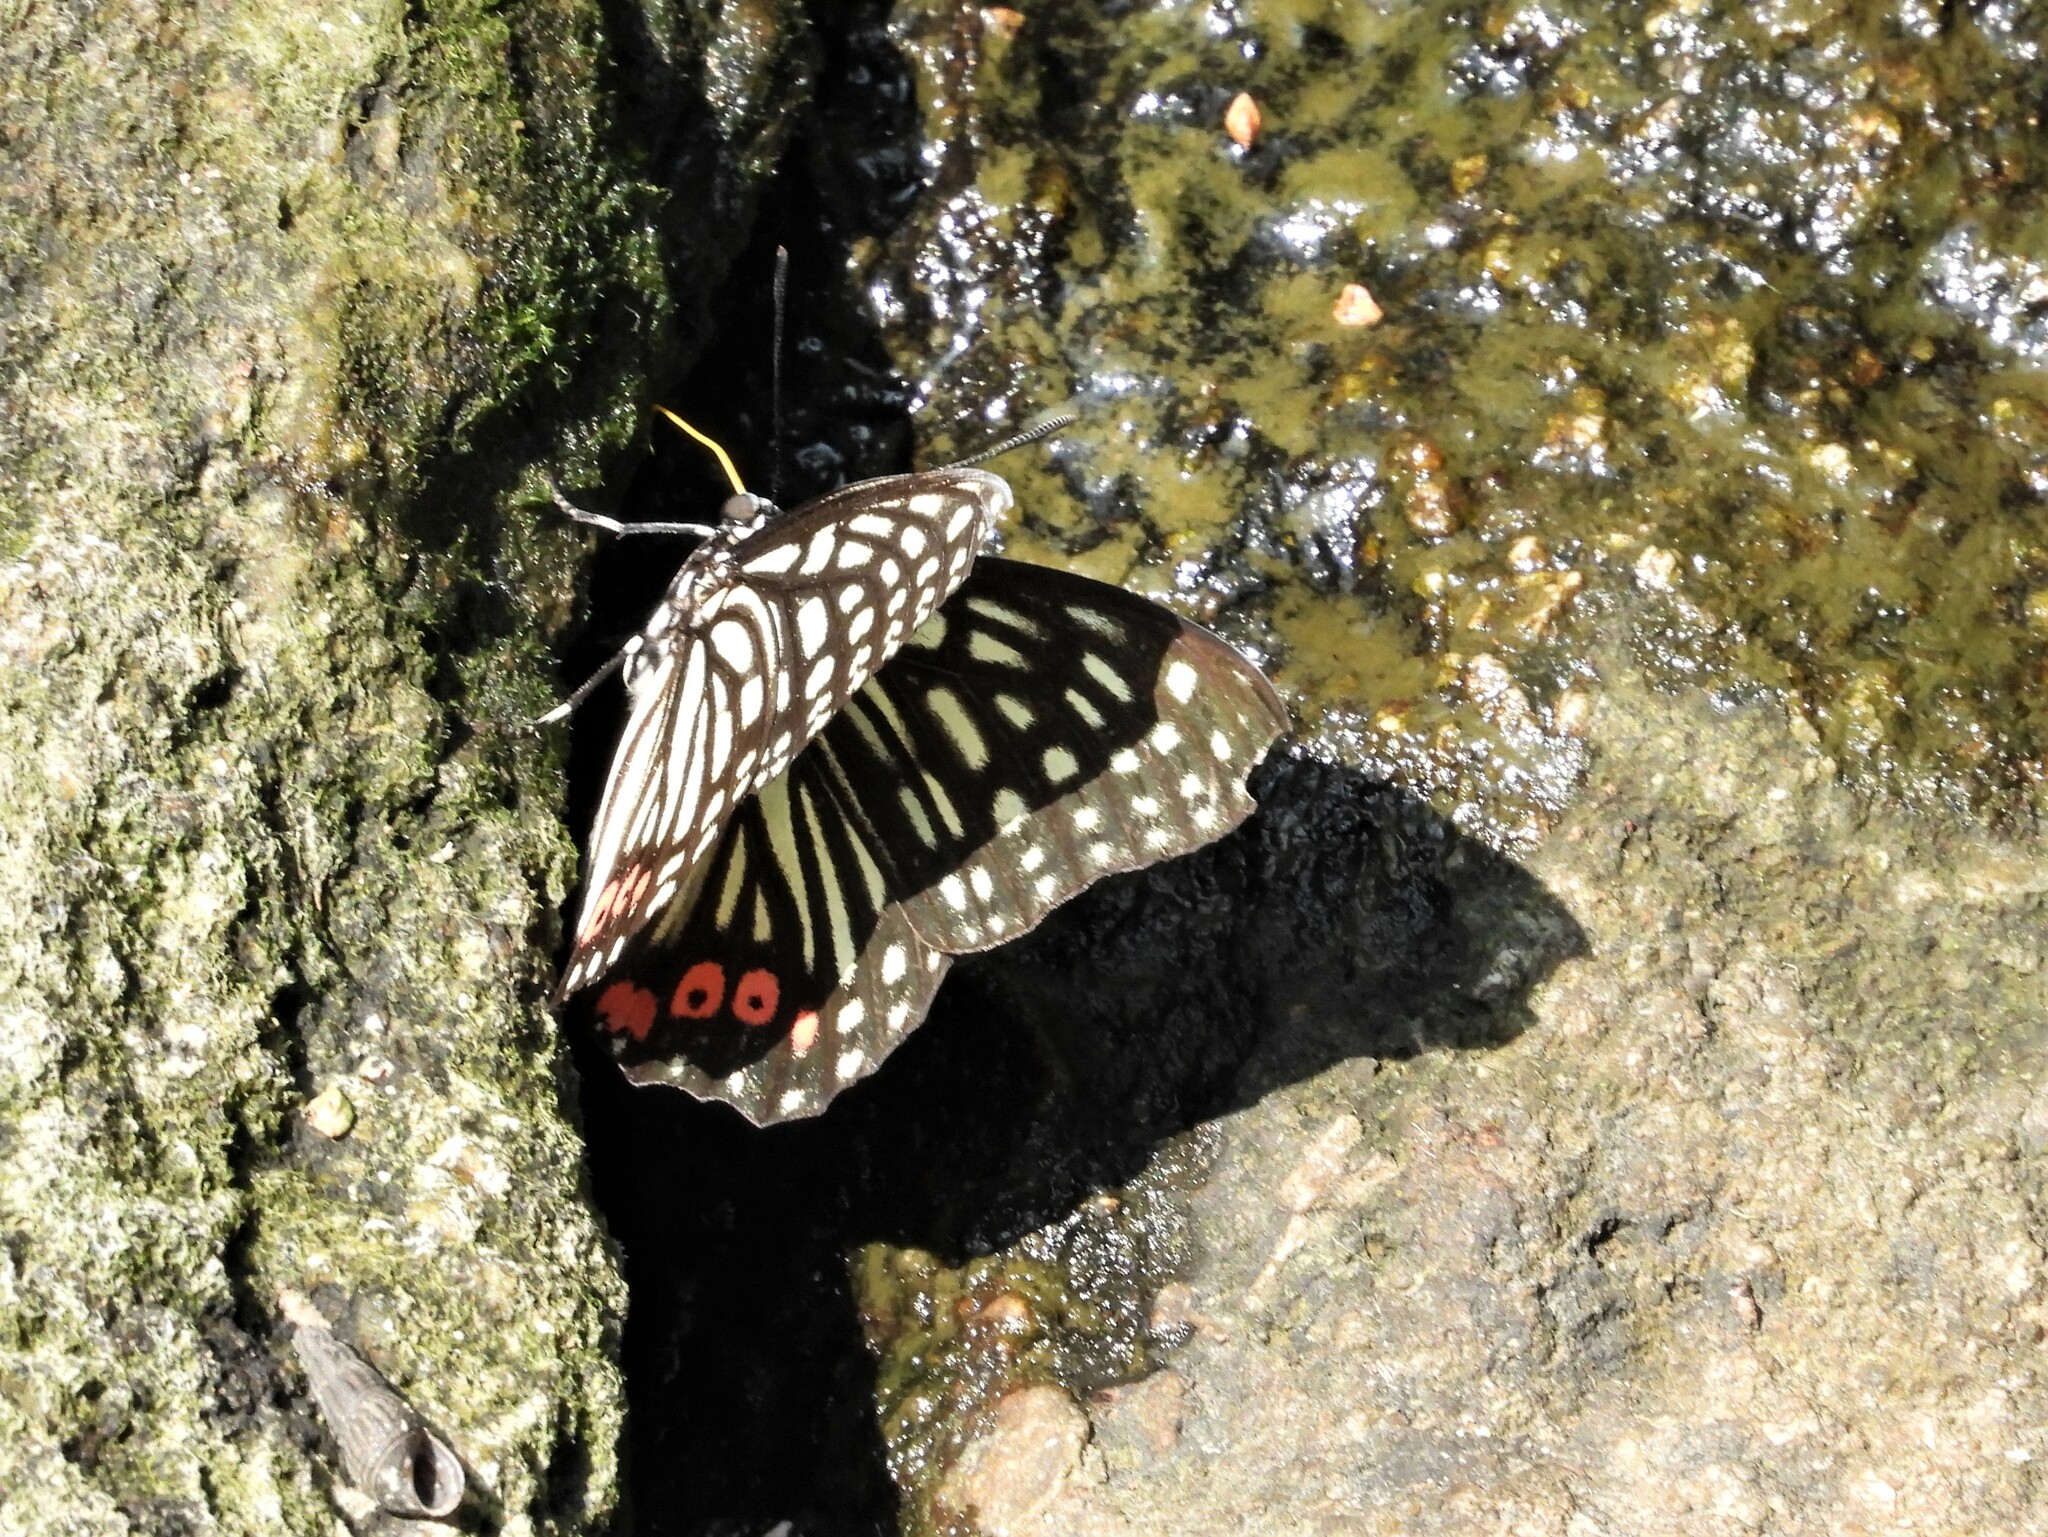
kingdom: Animalia
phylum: Arthropoda
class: Insecta
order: Lepidoptera
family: Nymphalidae
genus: Hestina
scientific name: Hestina assimilis
